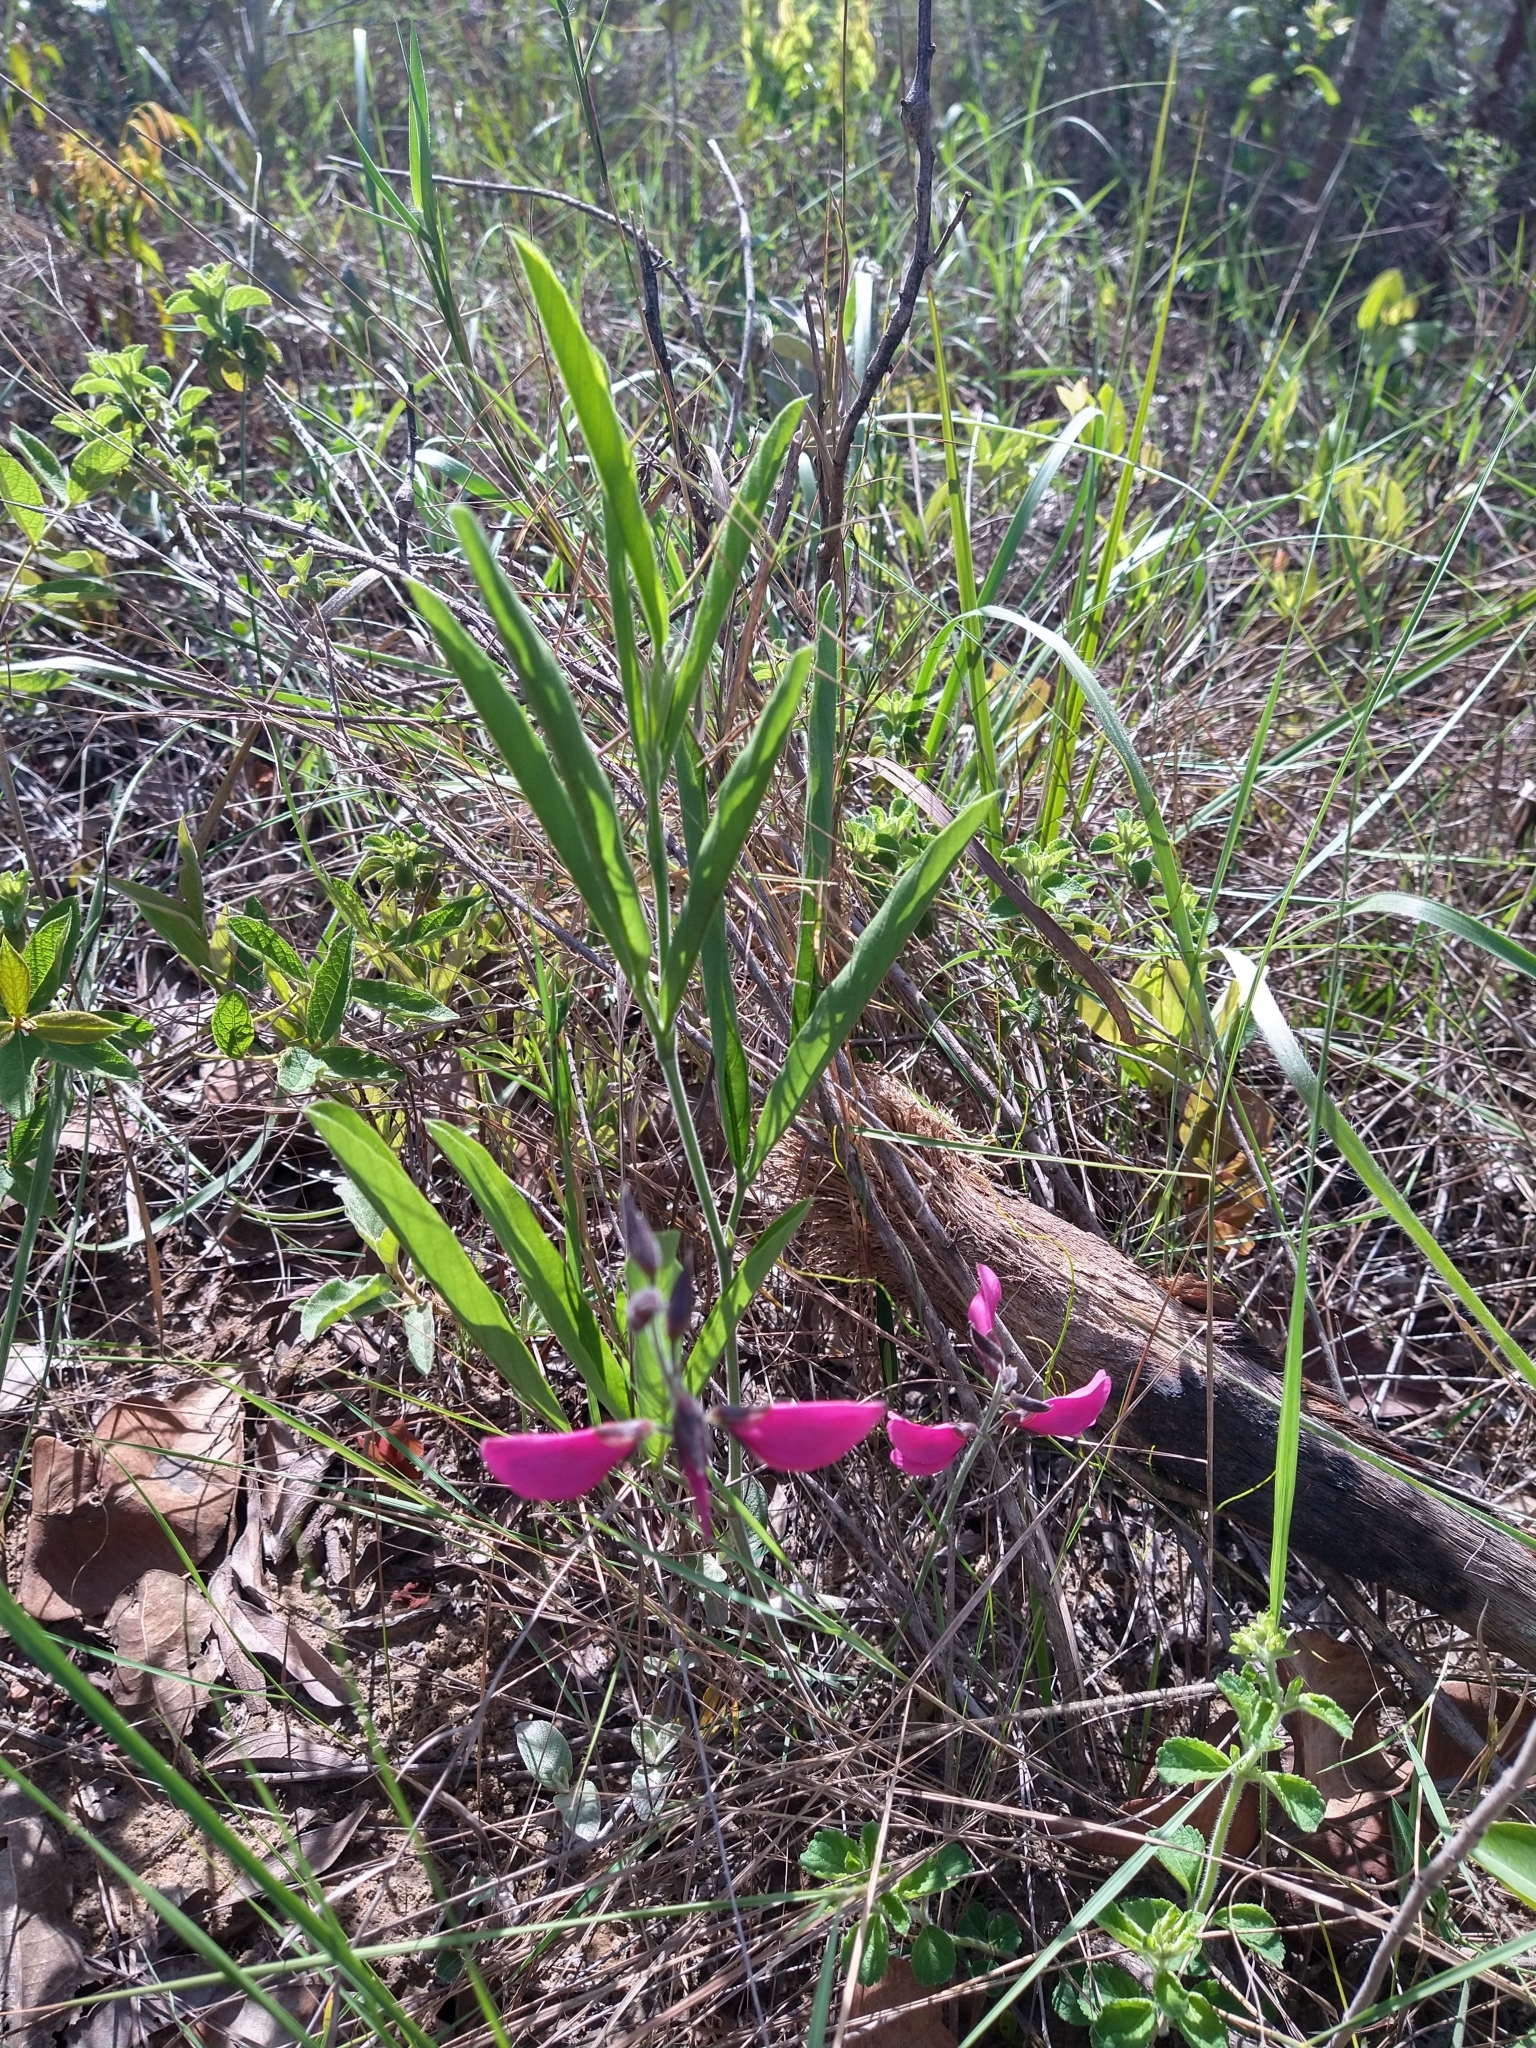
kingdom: Plantae
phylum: Tracheophyta
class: Magnoliopsida
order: Fabales
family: Fabaceae
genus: Cerradicola
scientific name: Cerradicola peduncularis
